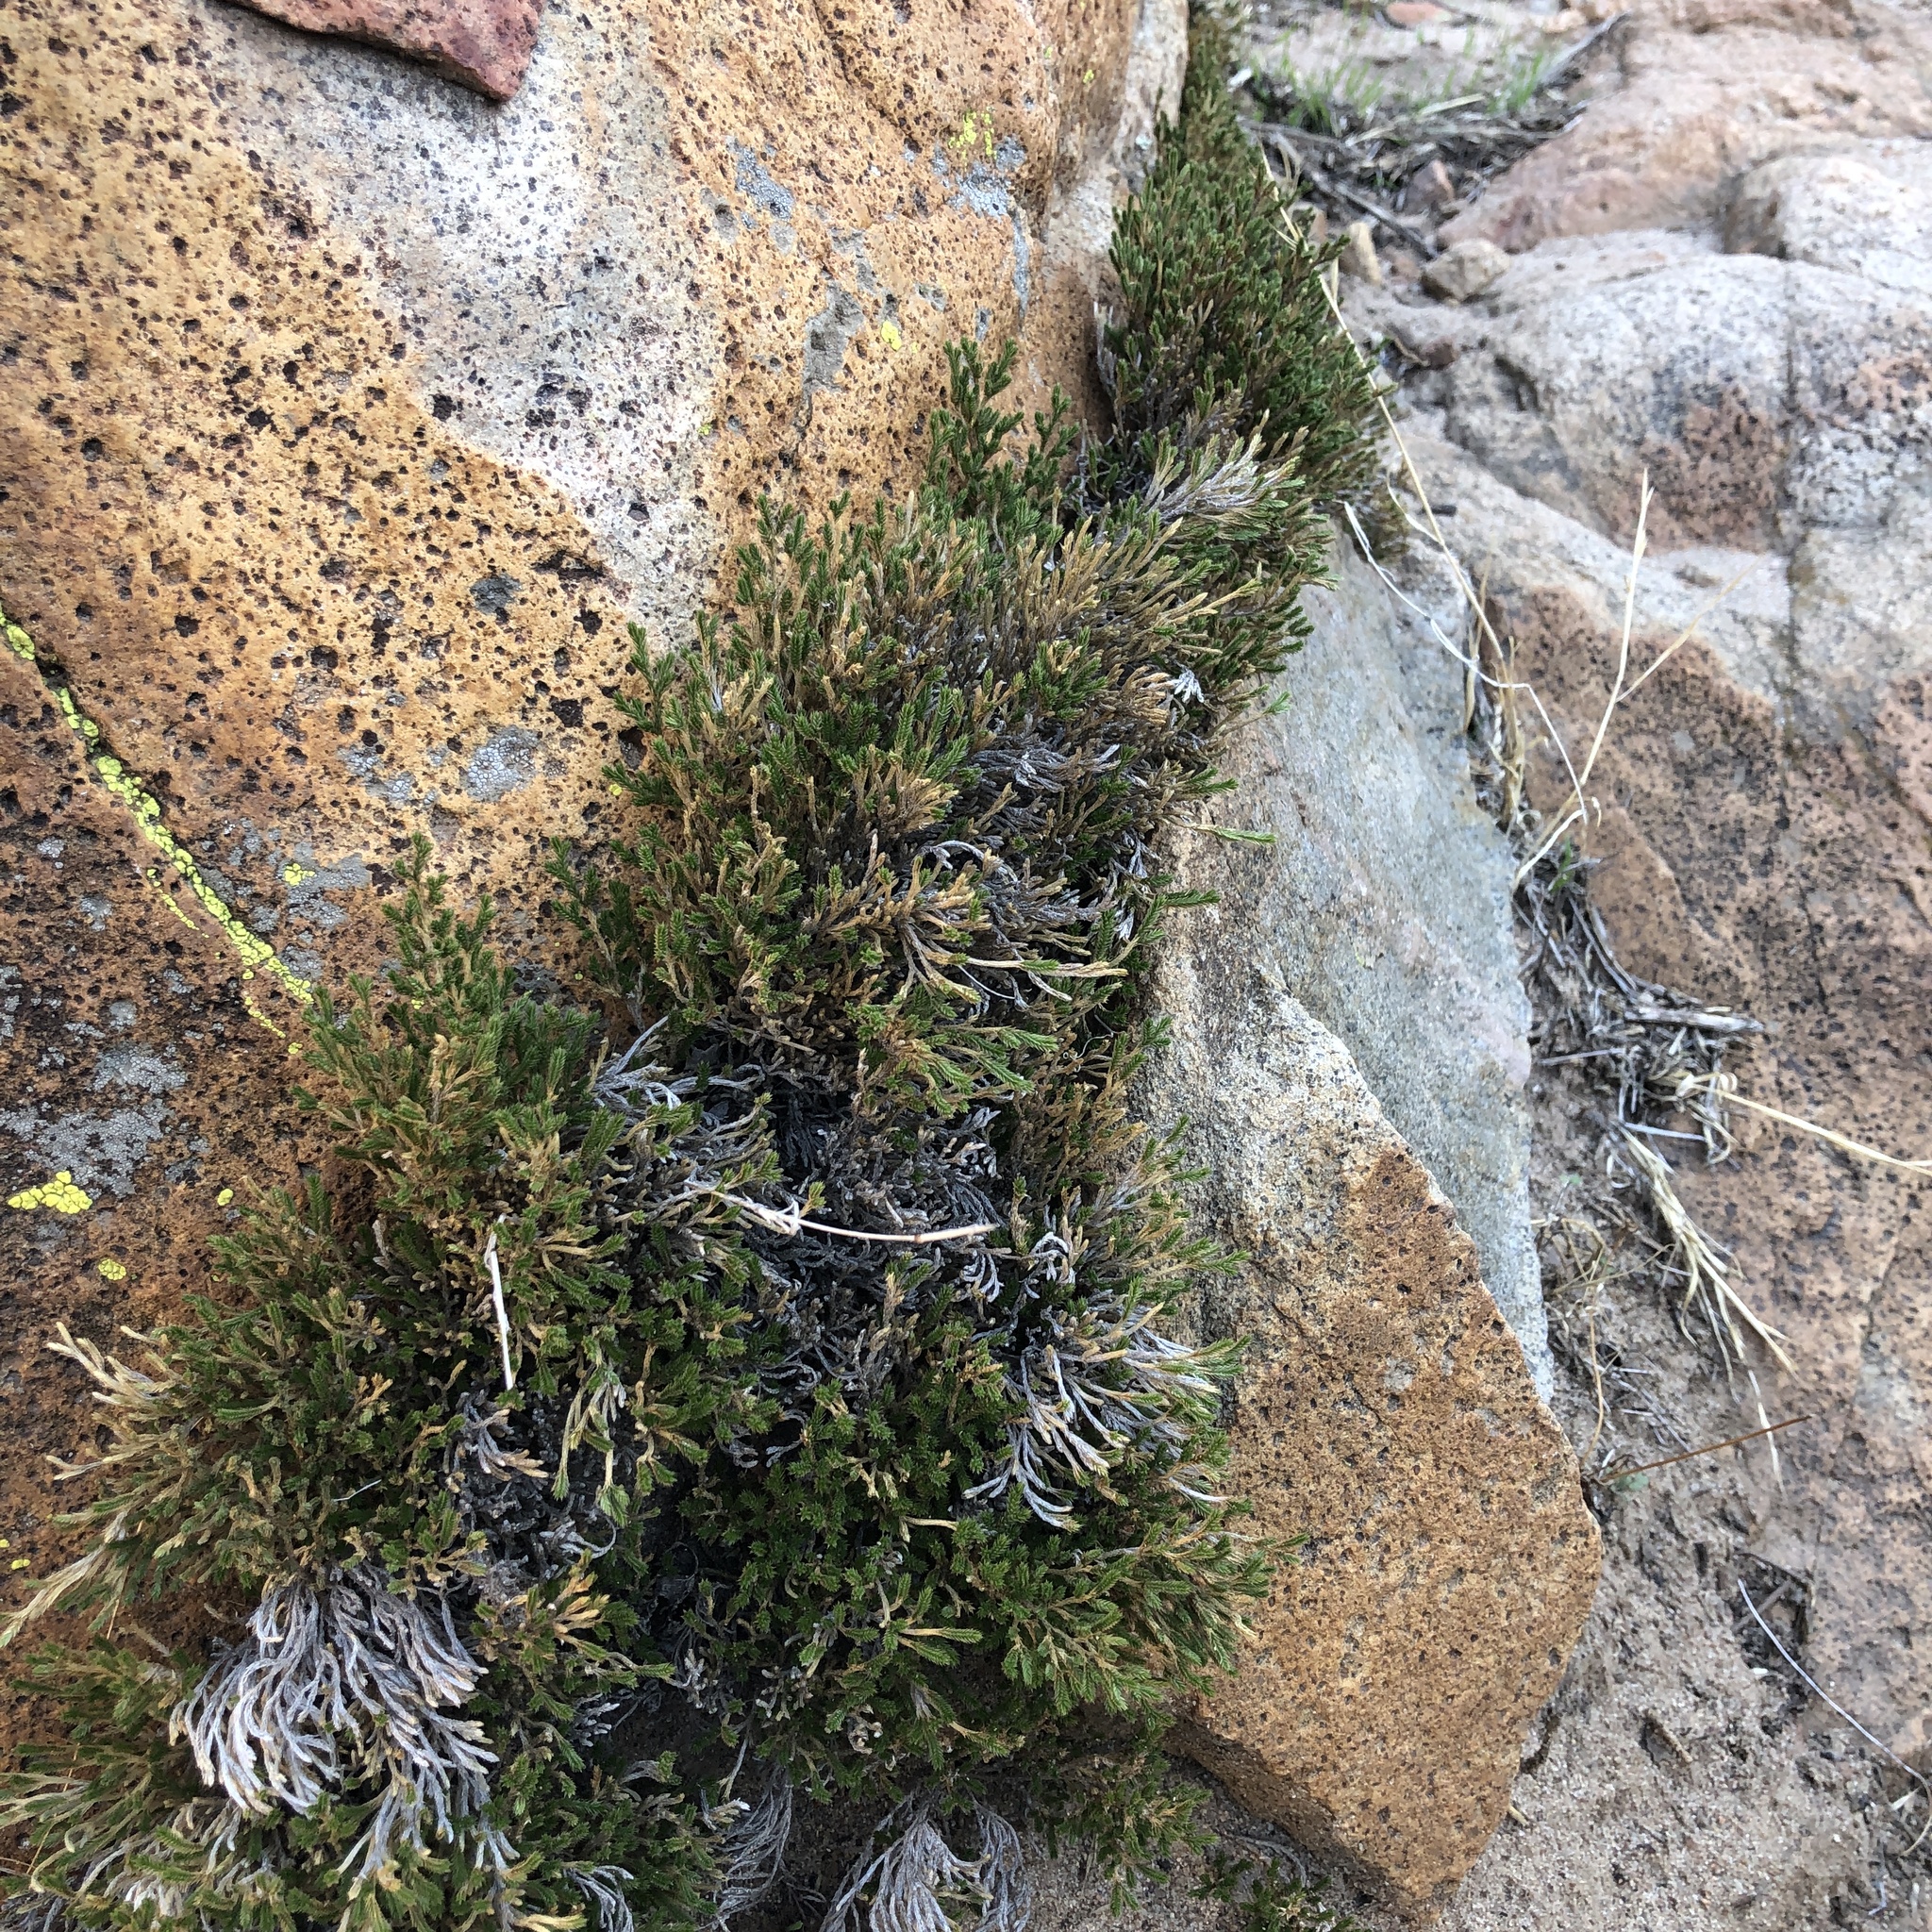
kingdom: Plantae
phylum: Tracheophyta
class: Lycopodiopsida
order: Selaginellales
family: Selaginellaceae
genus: Selaginella
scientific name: Selaginella bigelovii
